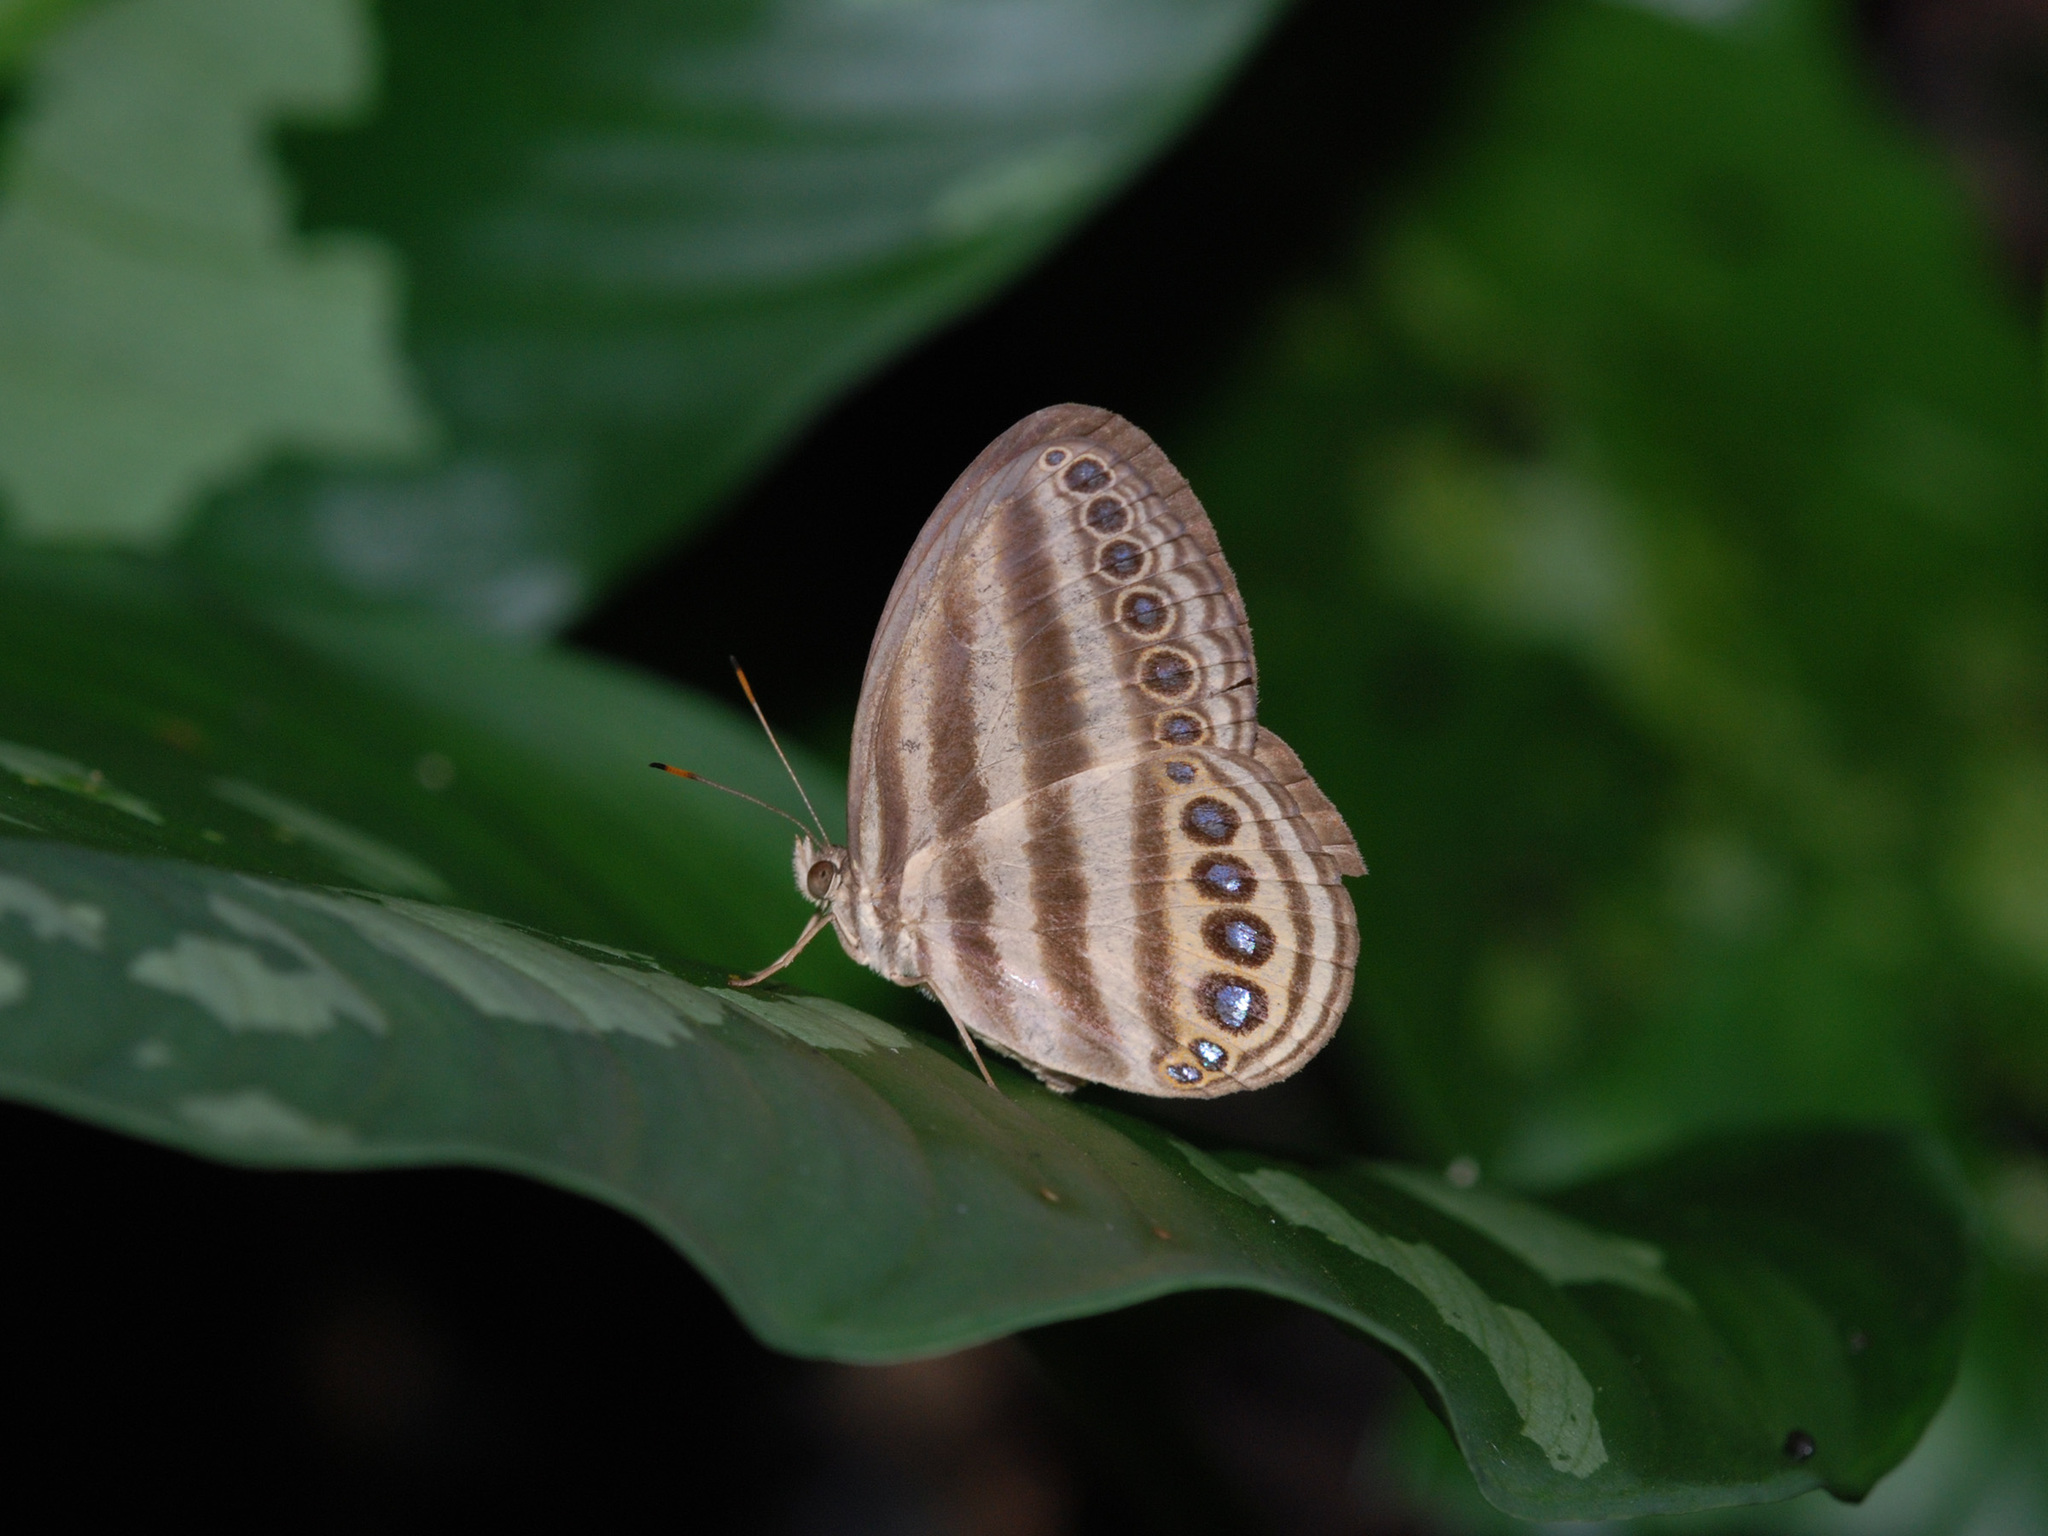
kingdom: Animalia
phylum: Arthropoda
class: Insecta
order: Lepidoptera
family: Nymphalidae
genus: Ragadia
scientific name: Ragadia makuta
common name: Striped ringlet
